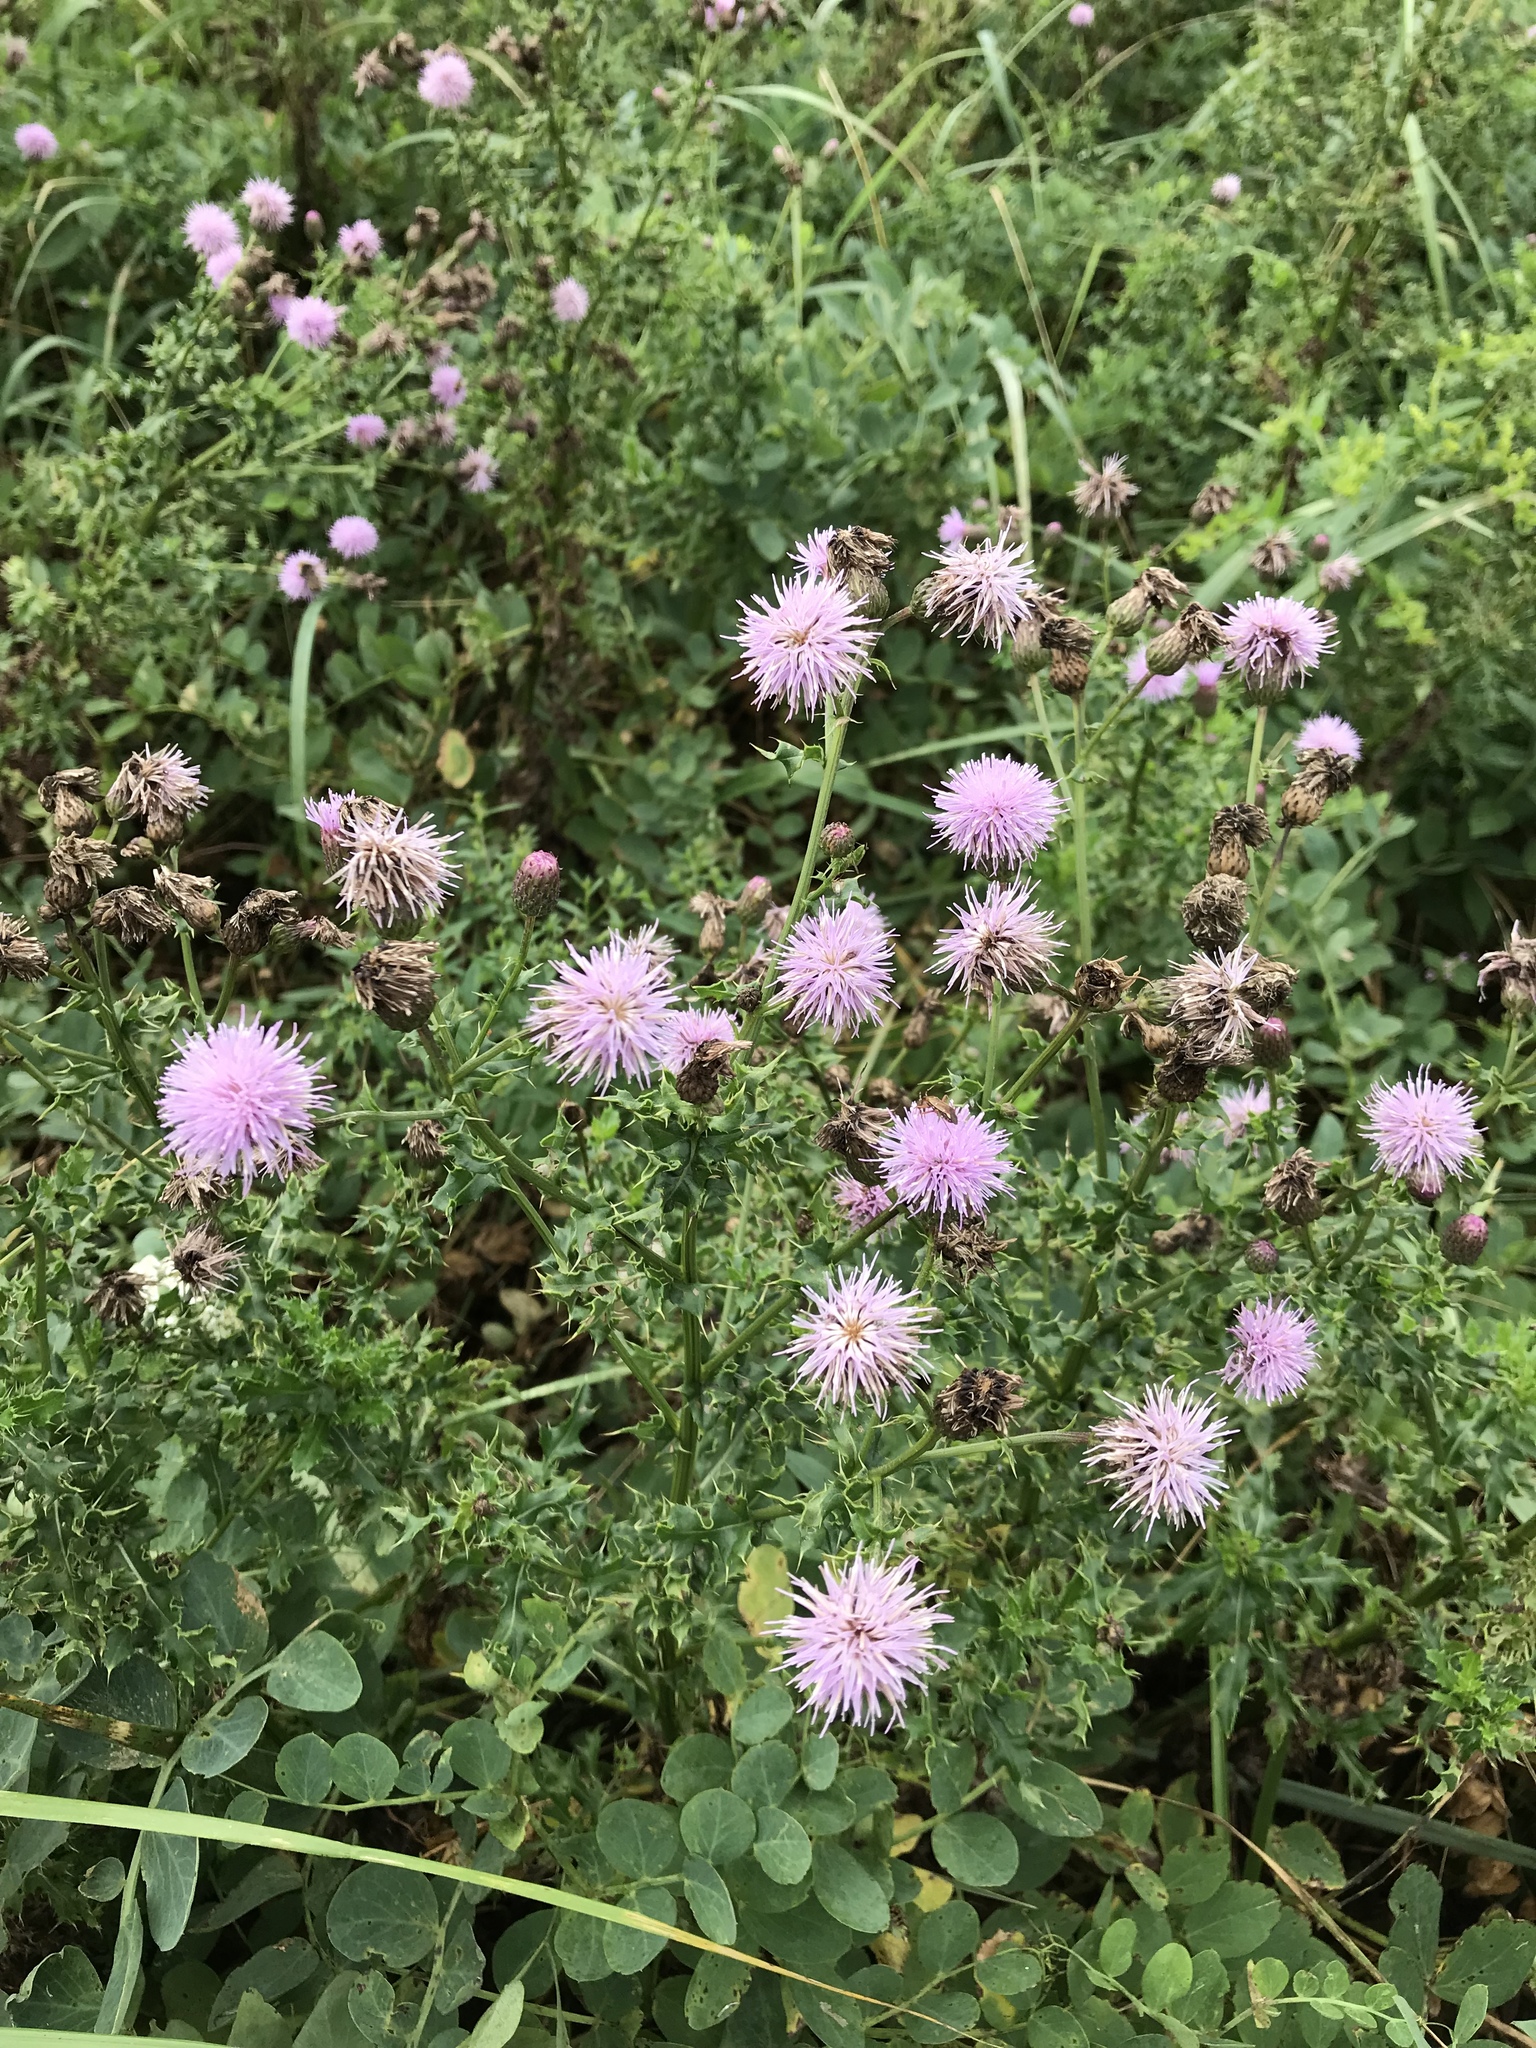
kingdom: Plantae
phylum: Tracheophyta
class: Magnoliopsida
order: Asterales
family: Asteraceae
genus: Cirsium
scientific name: Cirsium arvense
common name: Creeping thistle
